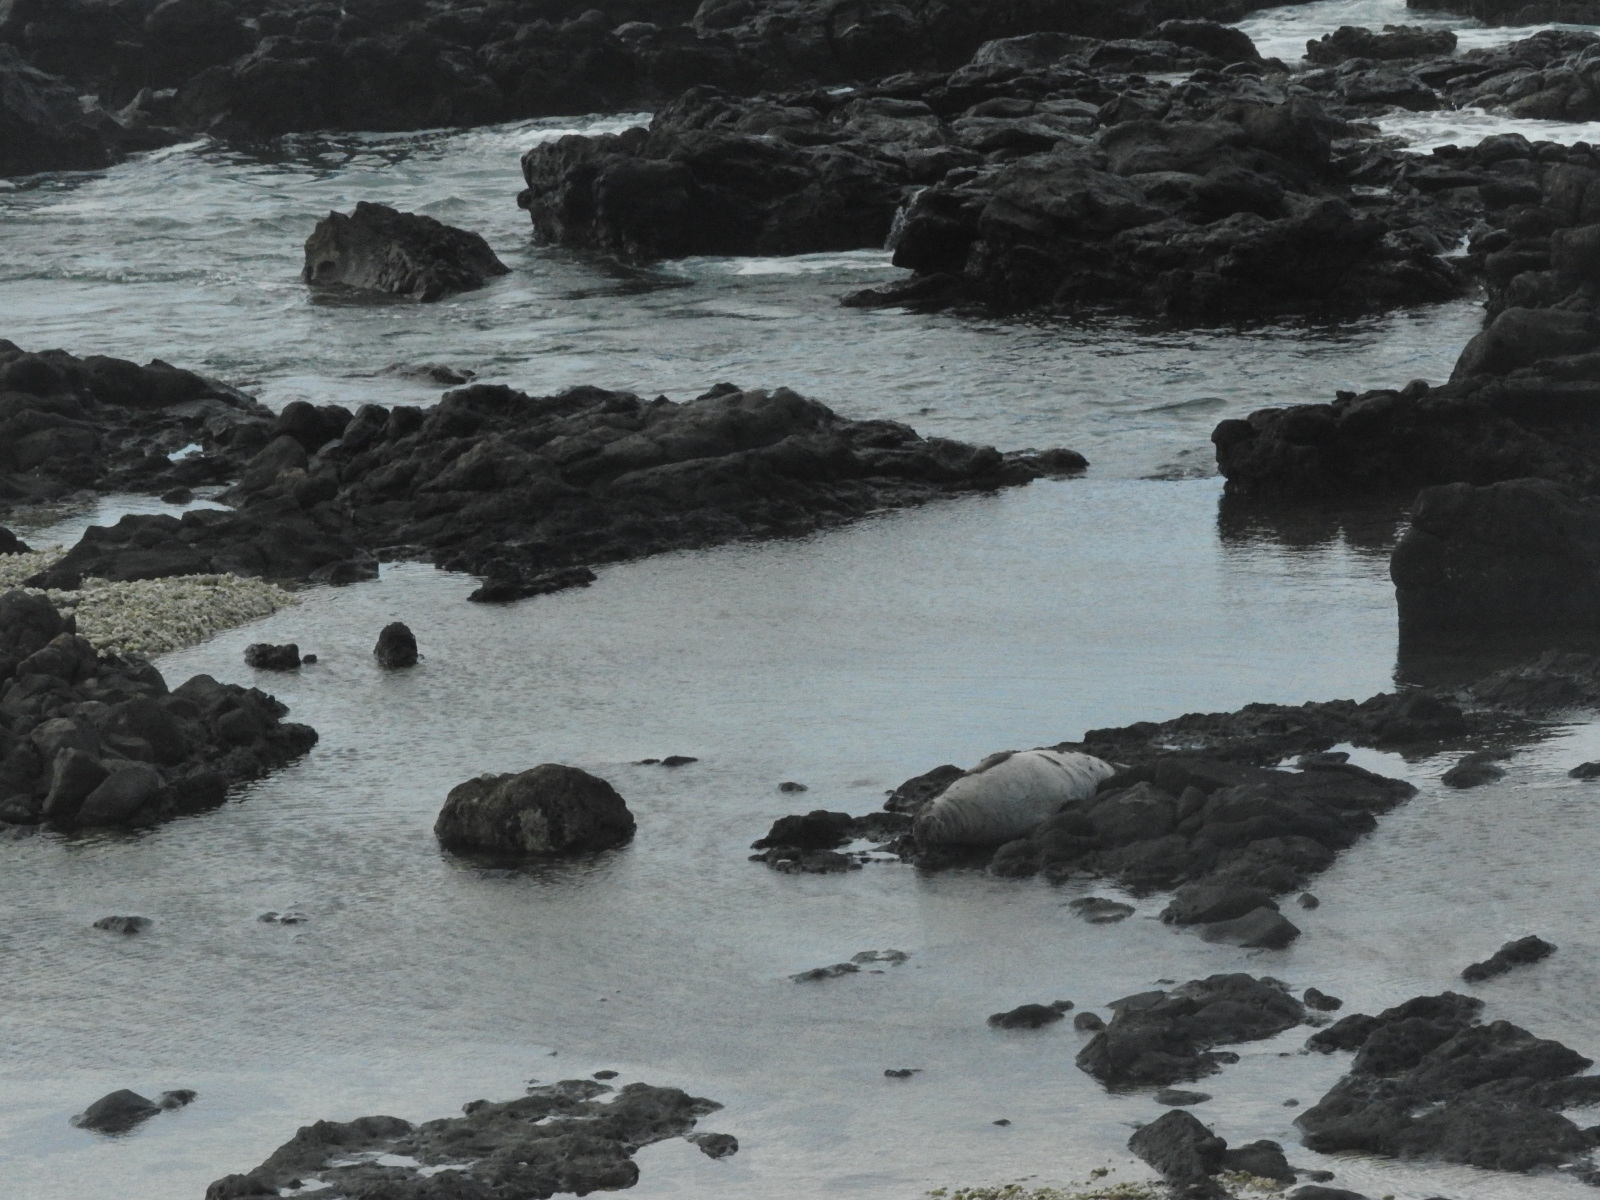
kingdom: Animalia
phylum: Chordata
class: Mammalia
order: Carnivora
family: Phocidae
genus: Neomonachus
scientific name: Neomonachus schauinslandi
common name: Hawaiian monk seal
